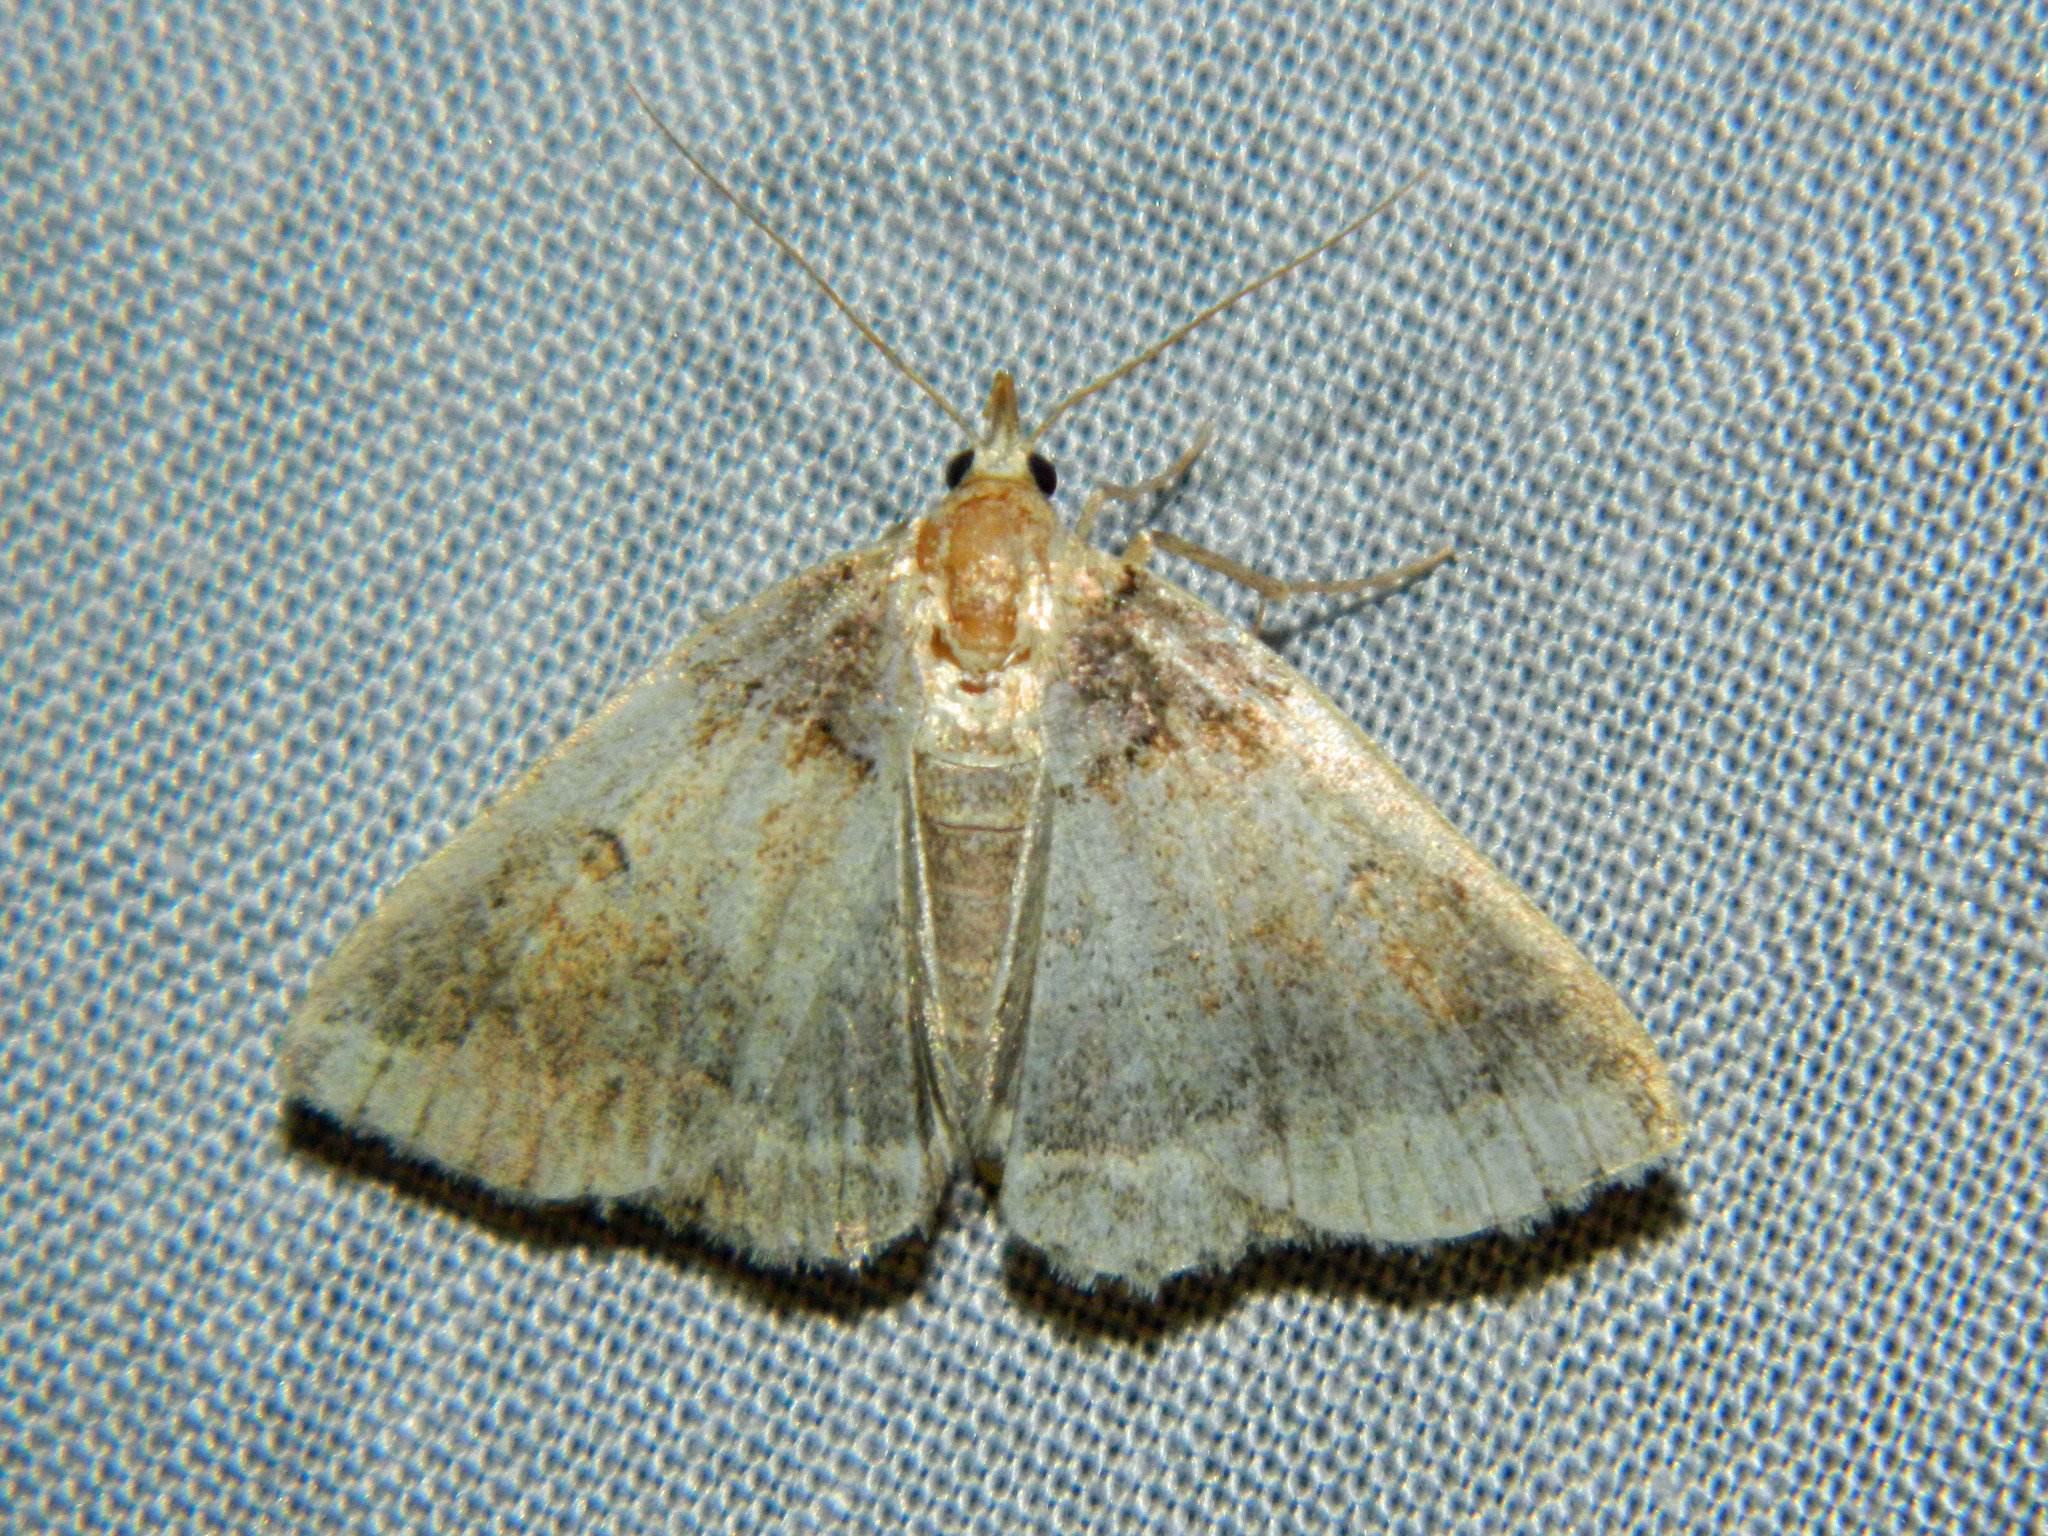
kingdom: Animalia
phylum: Arthropoda
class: Insecta
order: Lepidoptera
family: Erebidae
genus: Zanclognatha
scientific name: Zanclognatha laevigata
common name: Variable fan-foot
